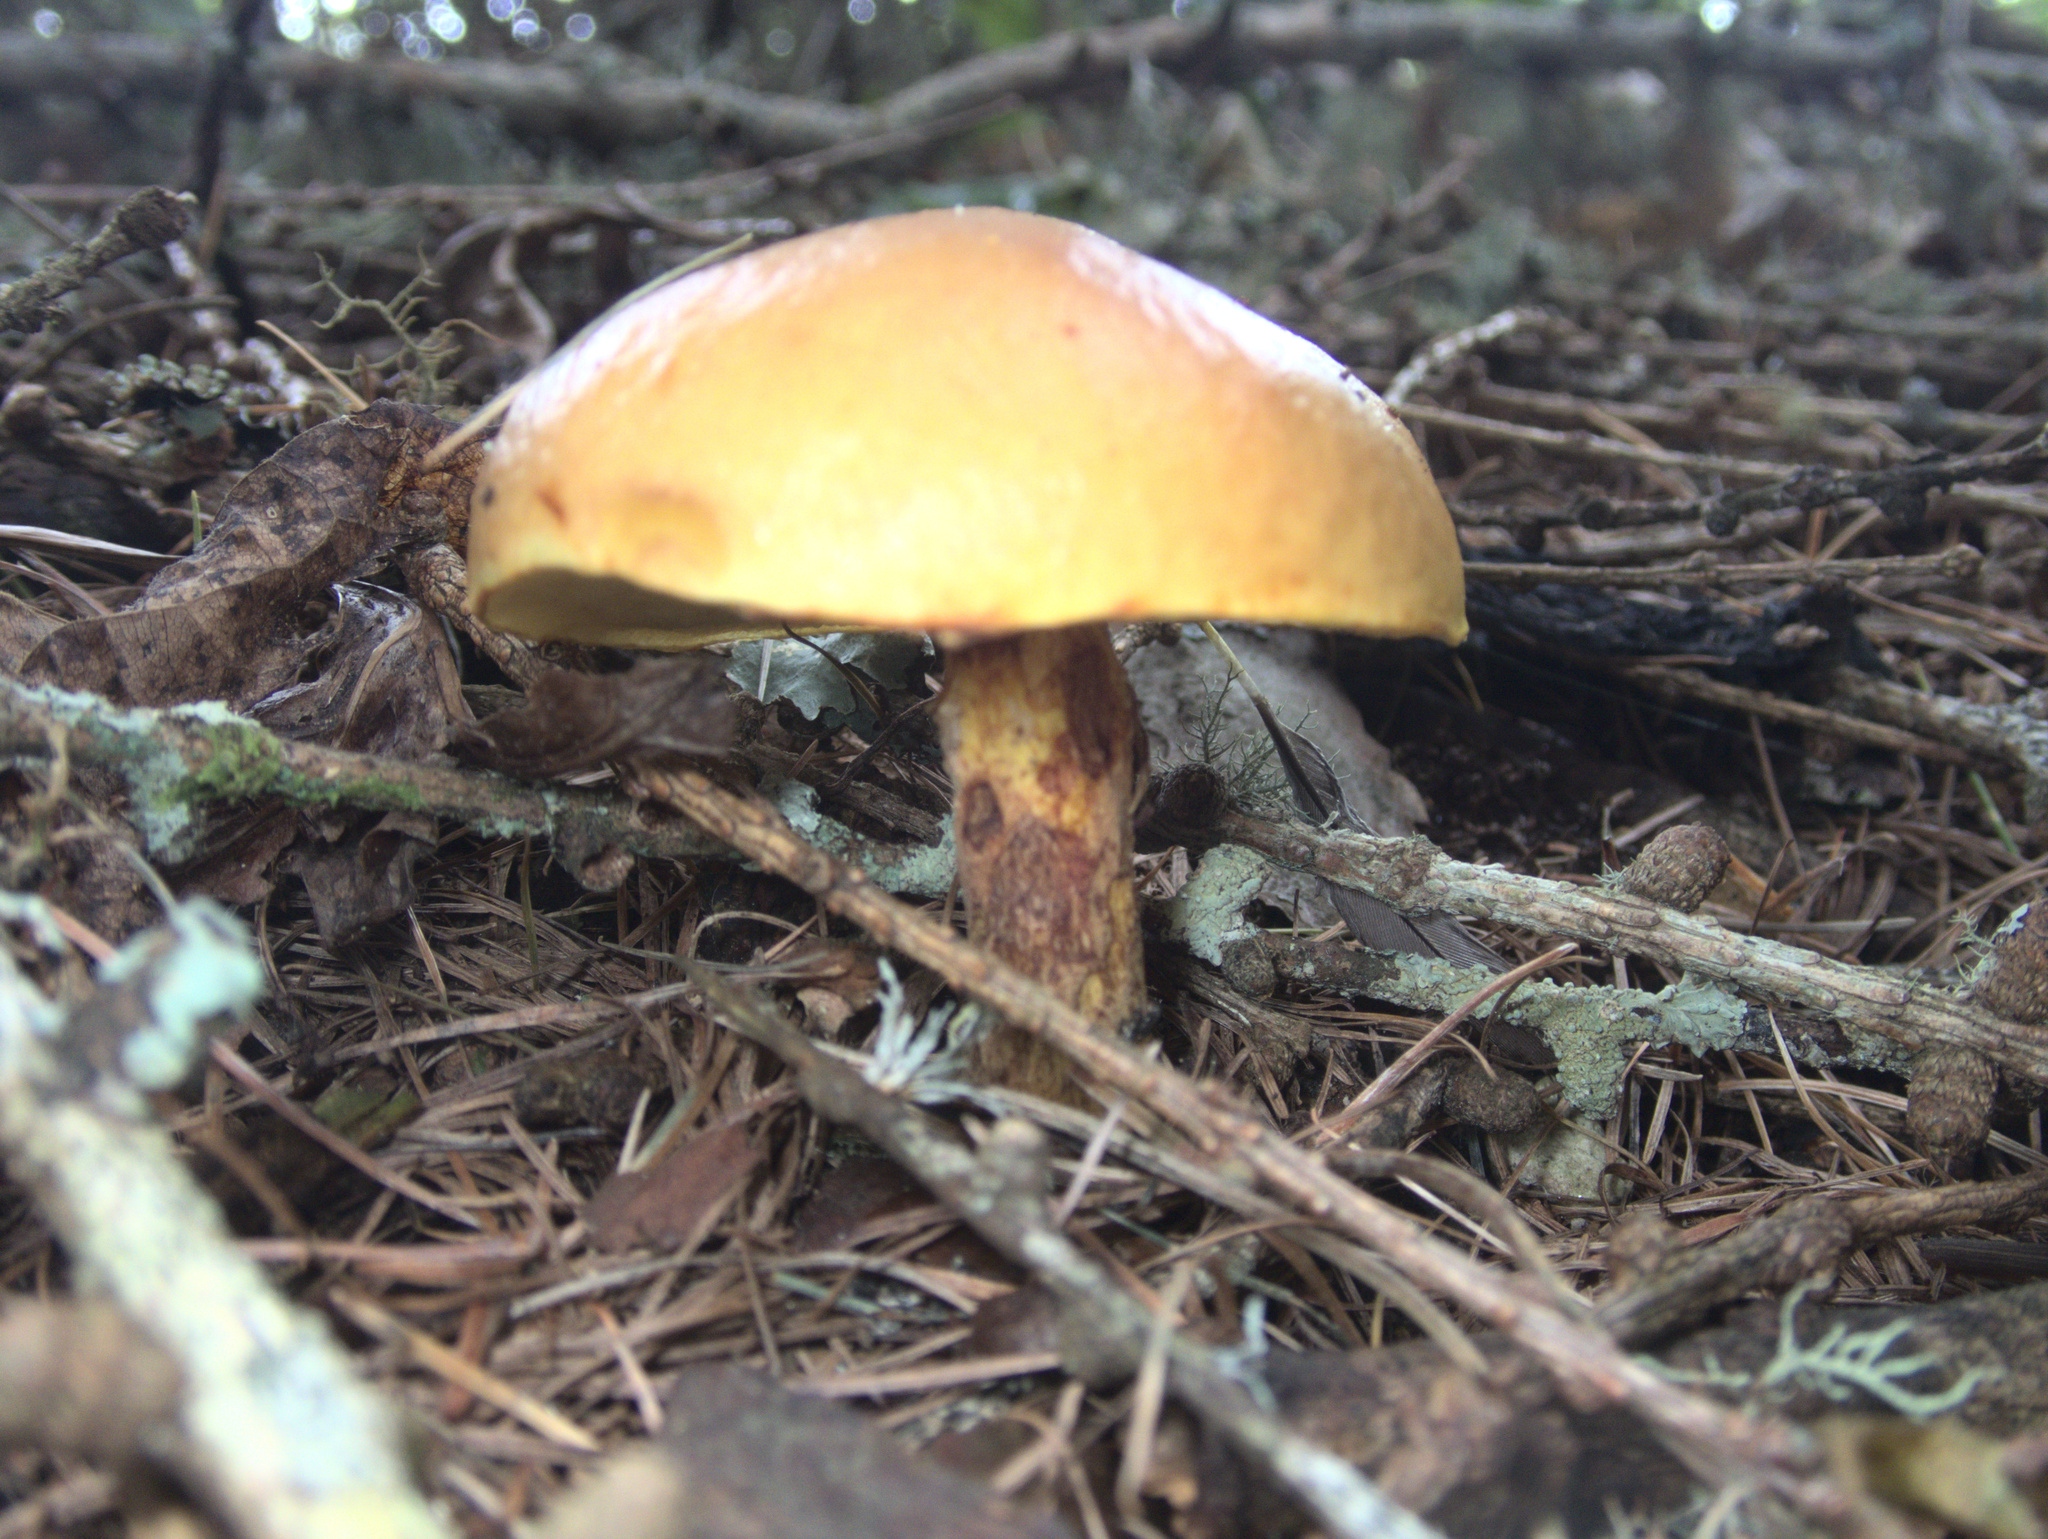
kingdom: Fungi
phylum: Basidiomycota
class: Agaricomycetes
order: Boletales
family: Suillaceae
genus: Suillus
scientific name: Suillus grevillei
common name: Larch bolete
